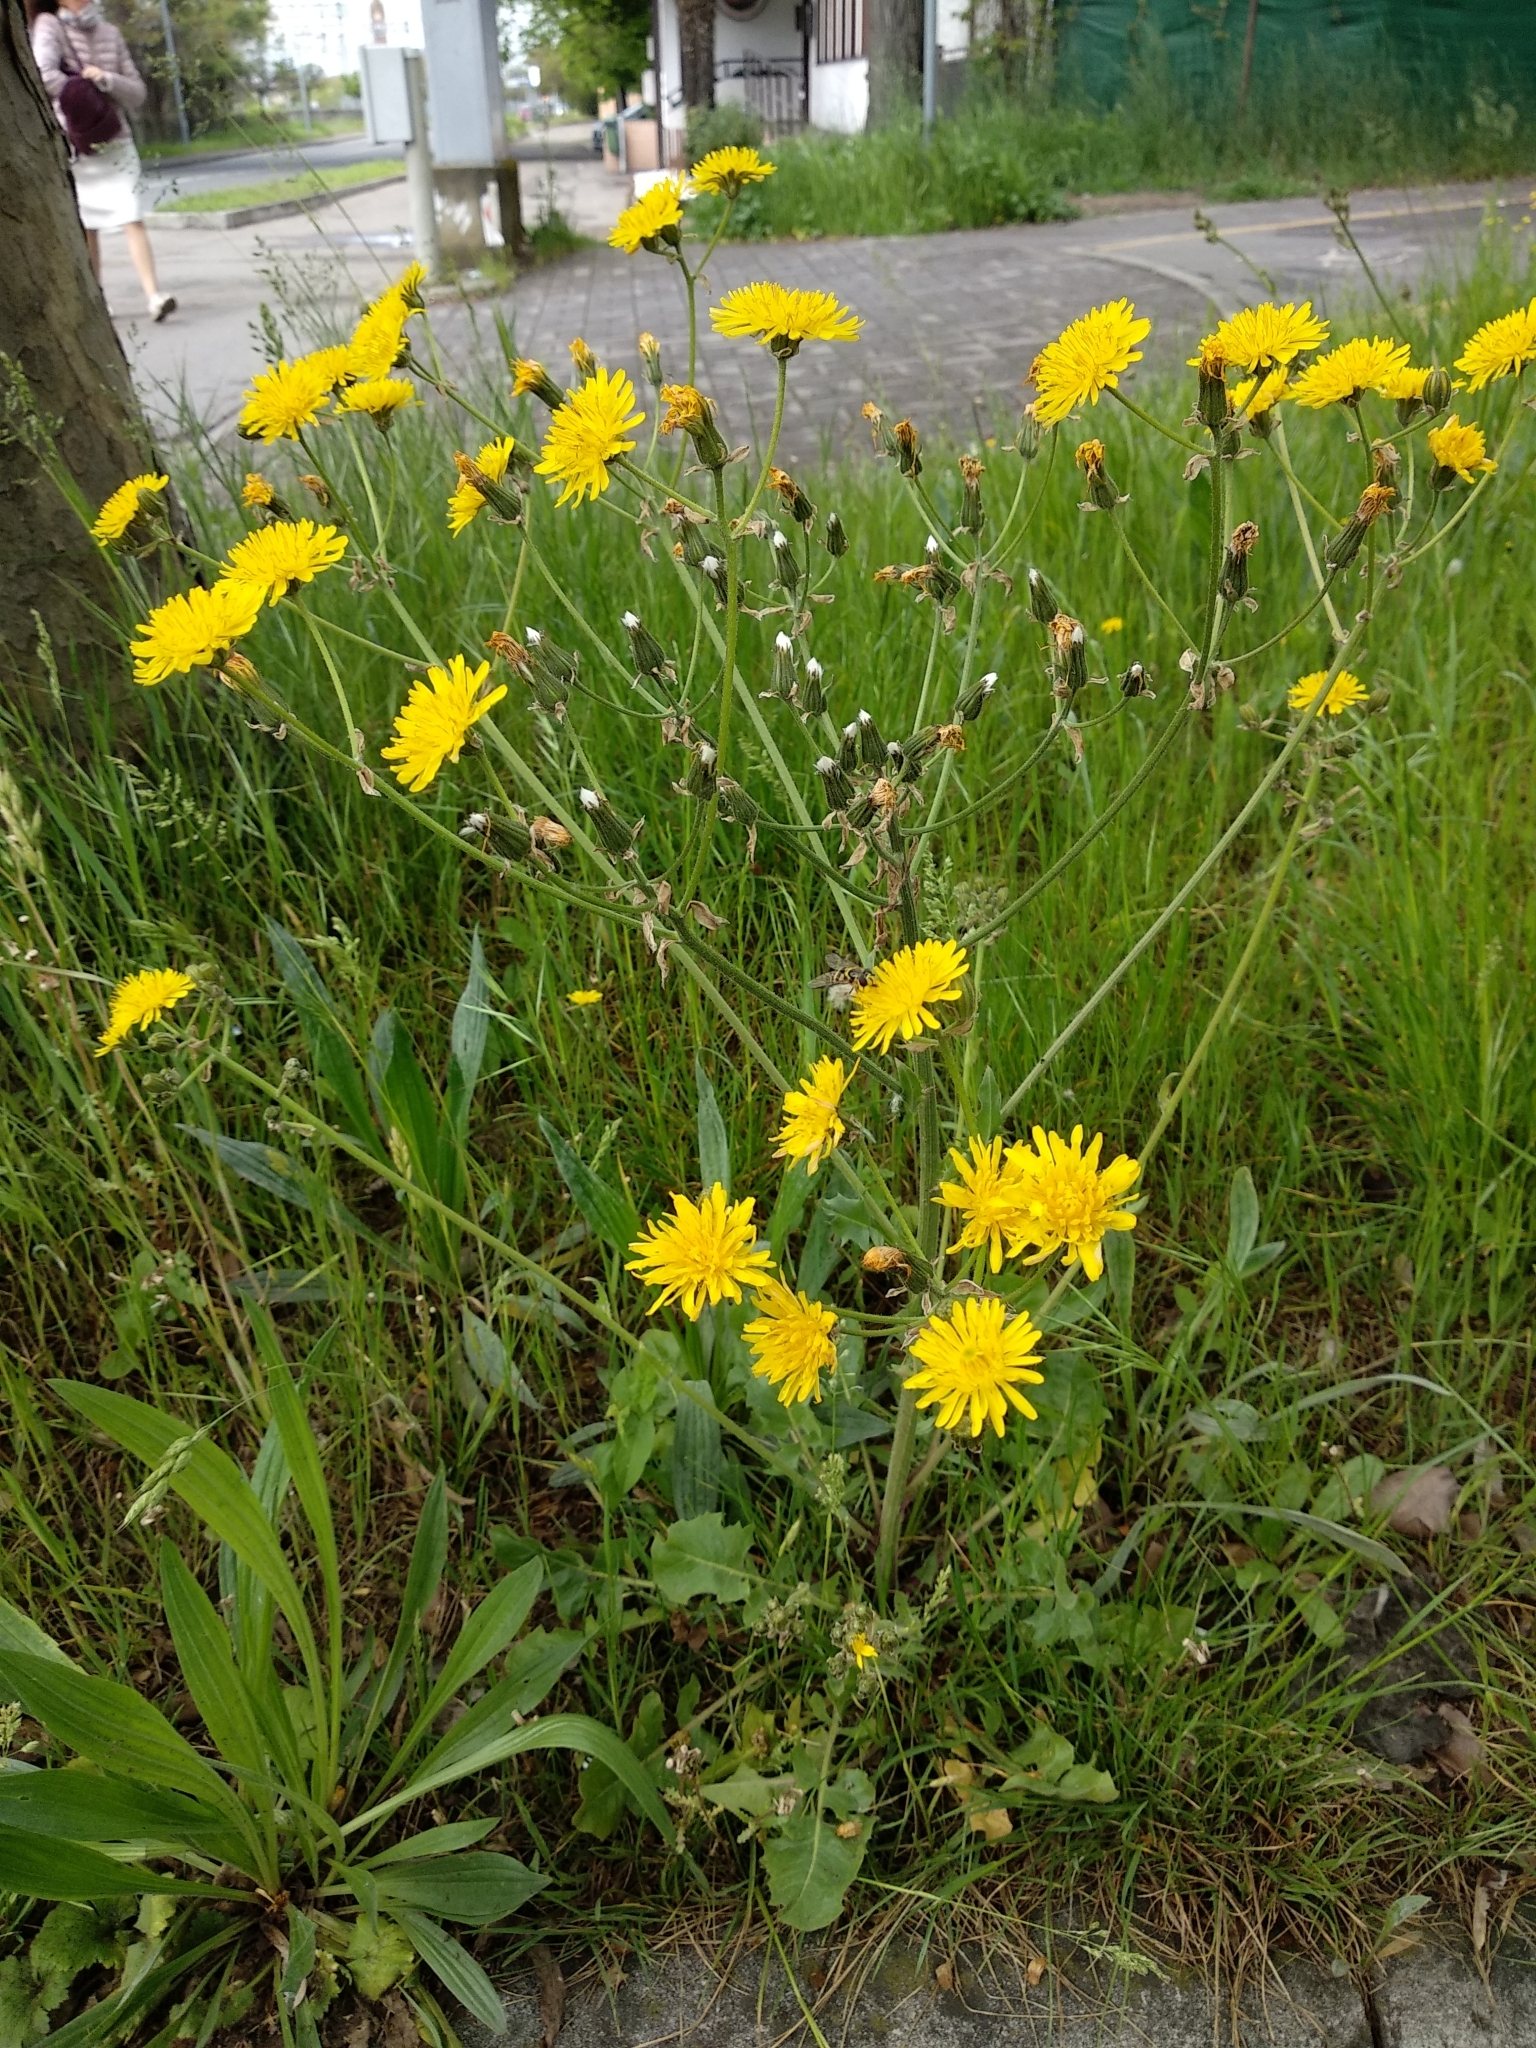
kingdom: Plantae
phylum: Tracheophyta
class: Magnoliopsida
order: Asterales
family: Asteraceae
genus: Crepis
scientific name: Crepis vesicaria
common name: Beaked hawksbeard
